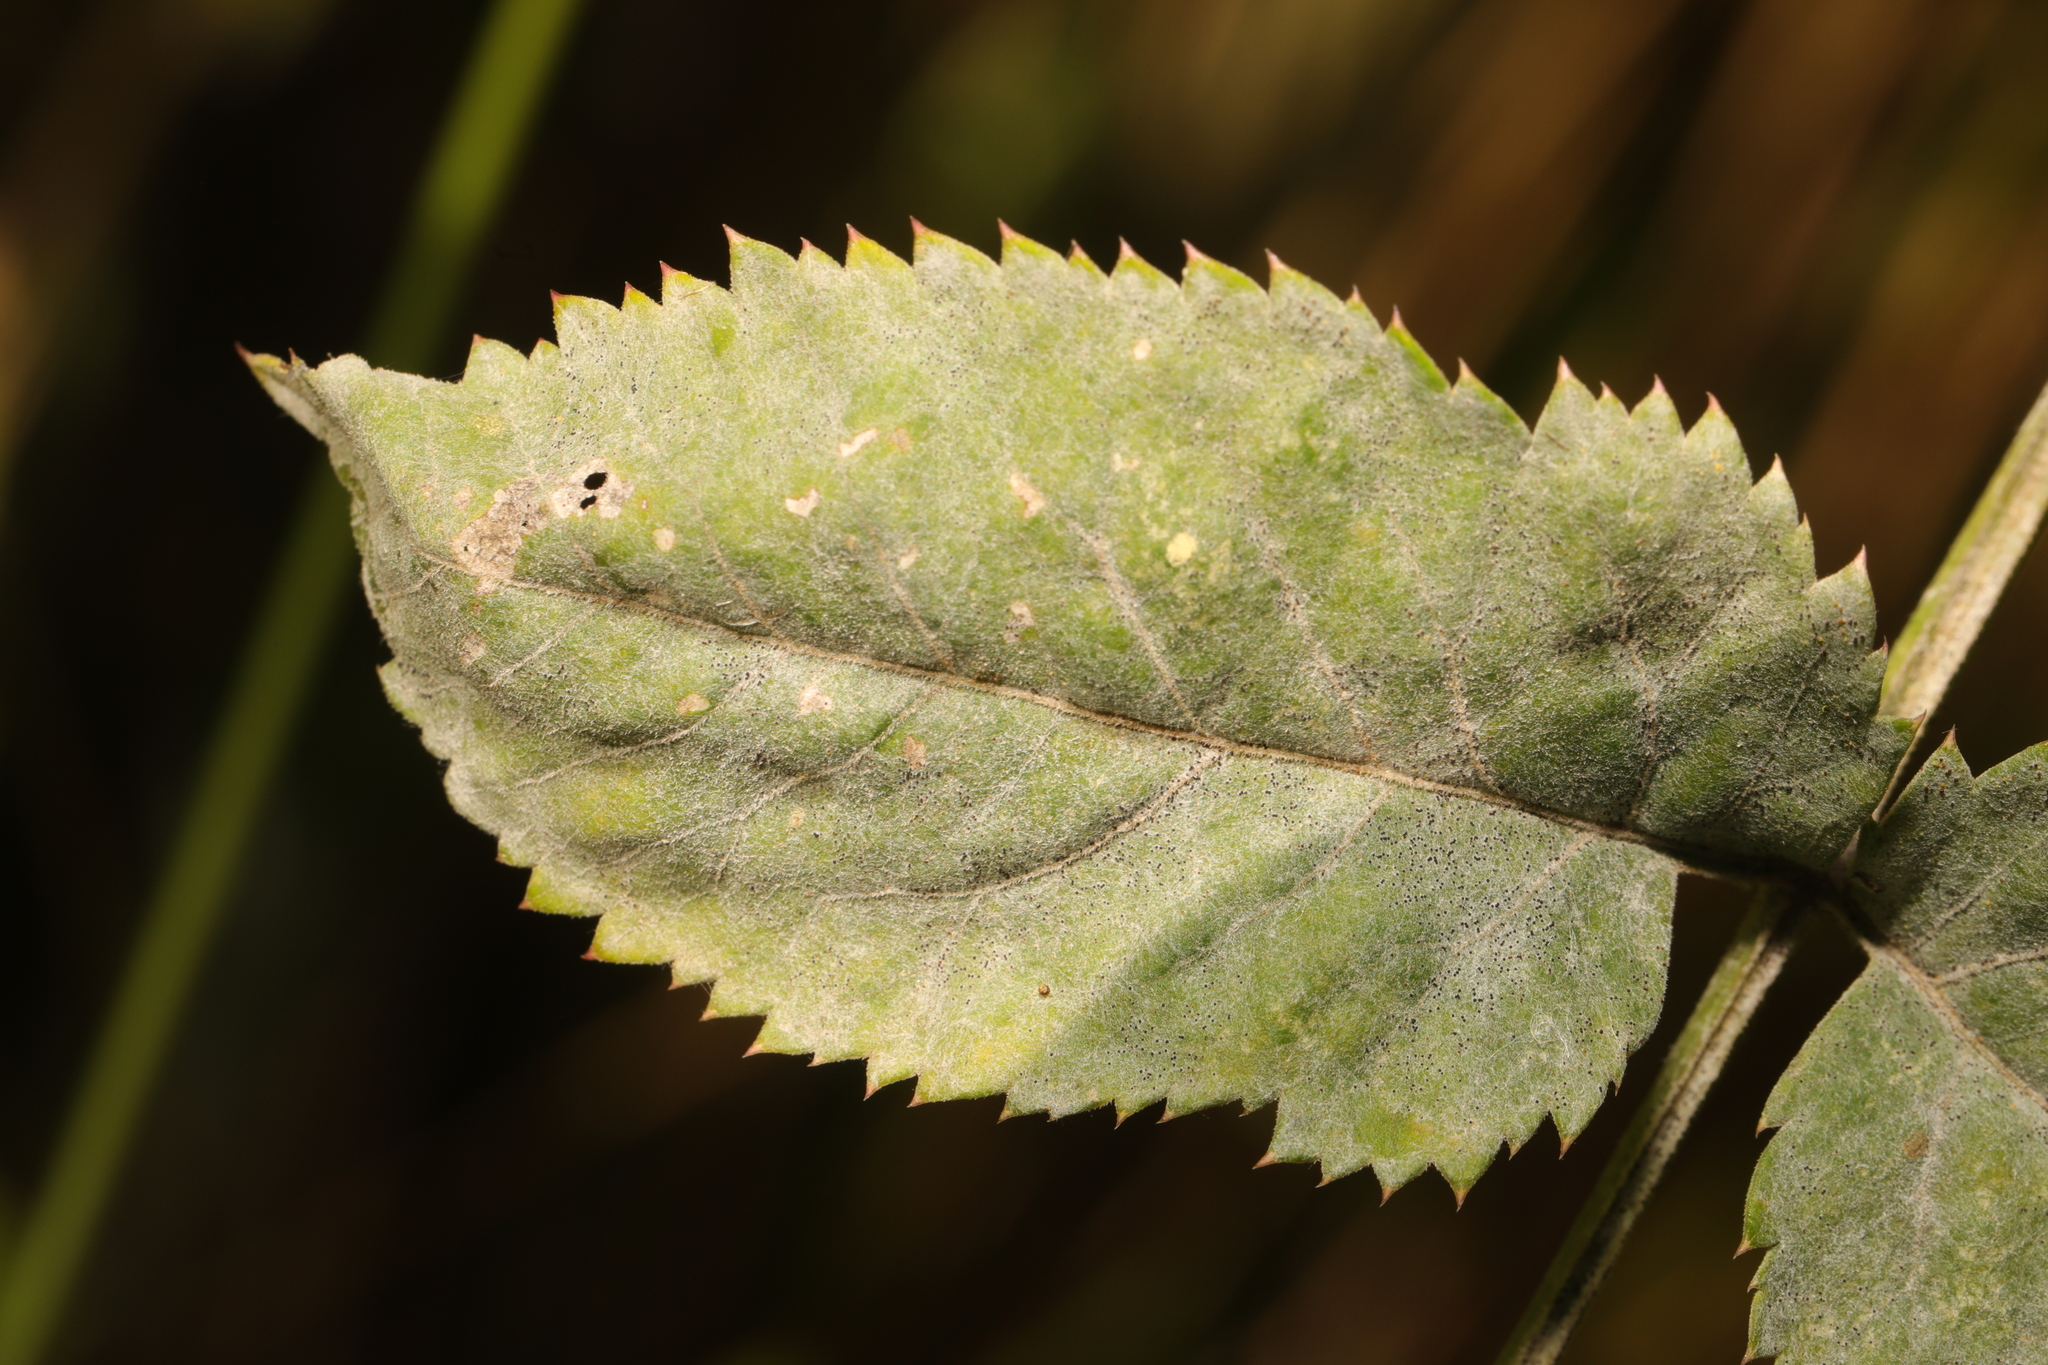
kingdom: Fungi
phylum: Ascomycota
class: Leotiomycetes
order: Helotiales
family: Erysiphaceae
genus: Erysiphe
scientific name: Erysiphe heraclei
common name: Umbellifer mildew
